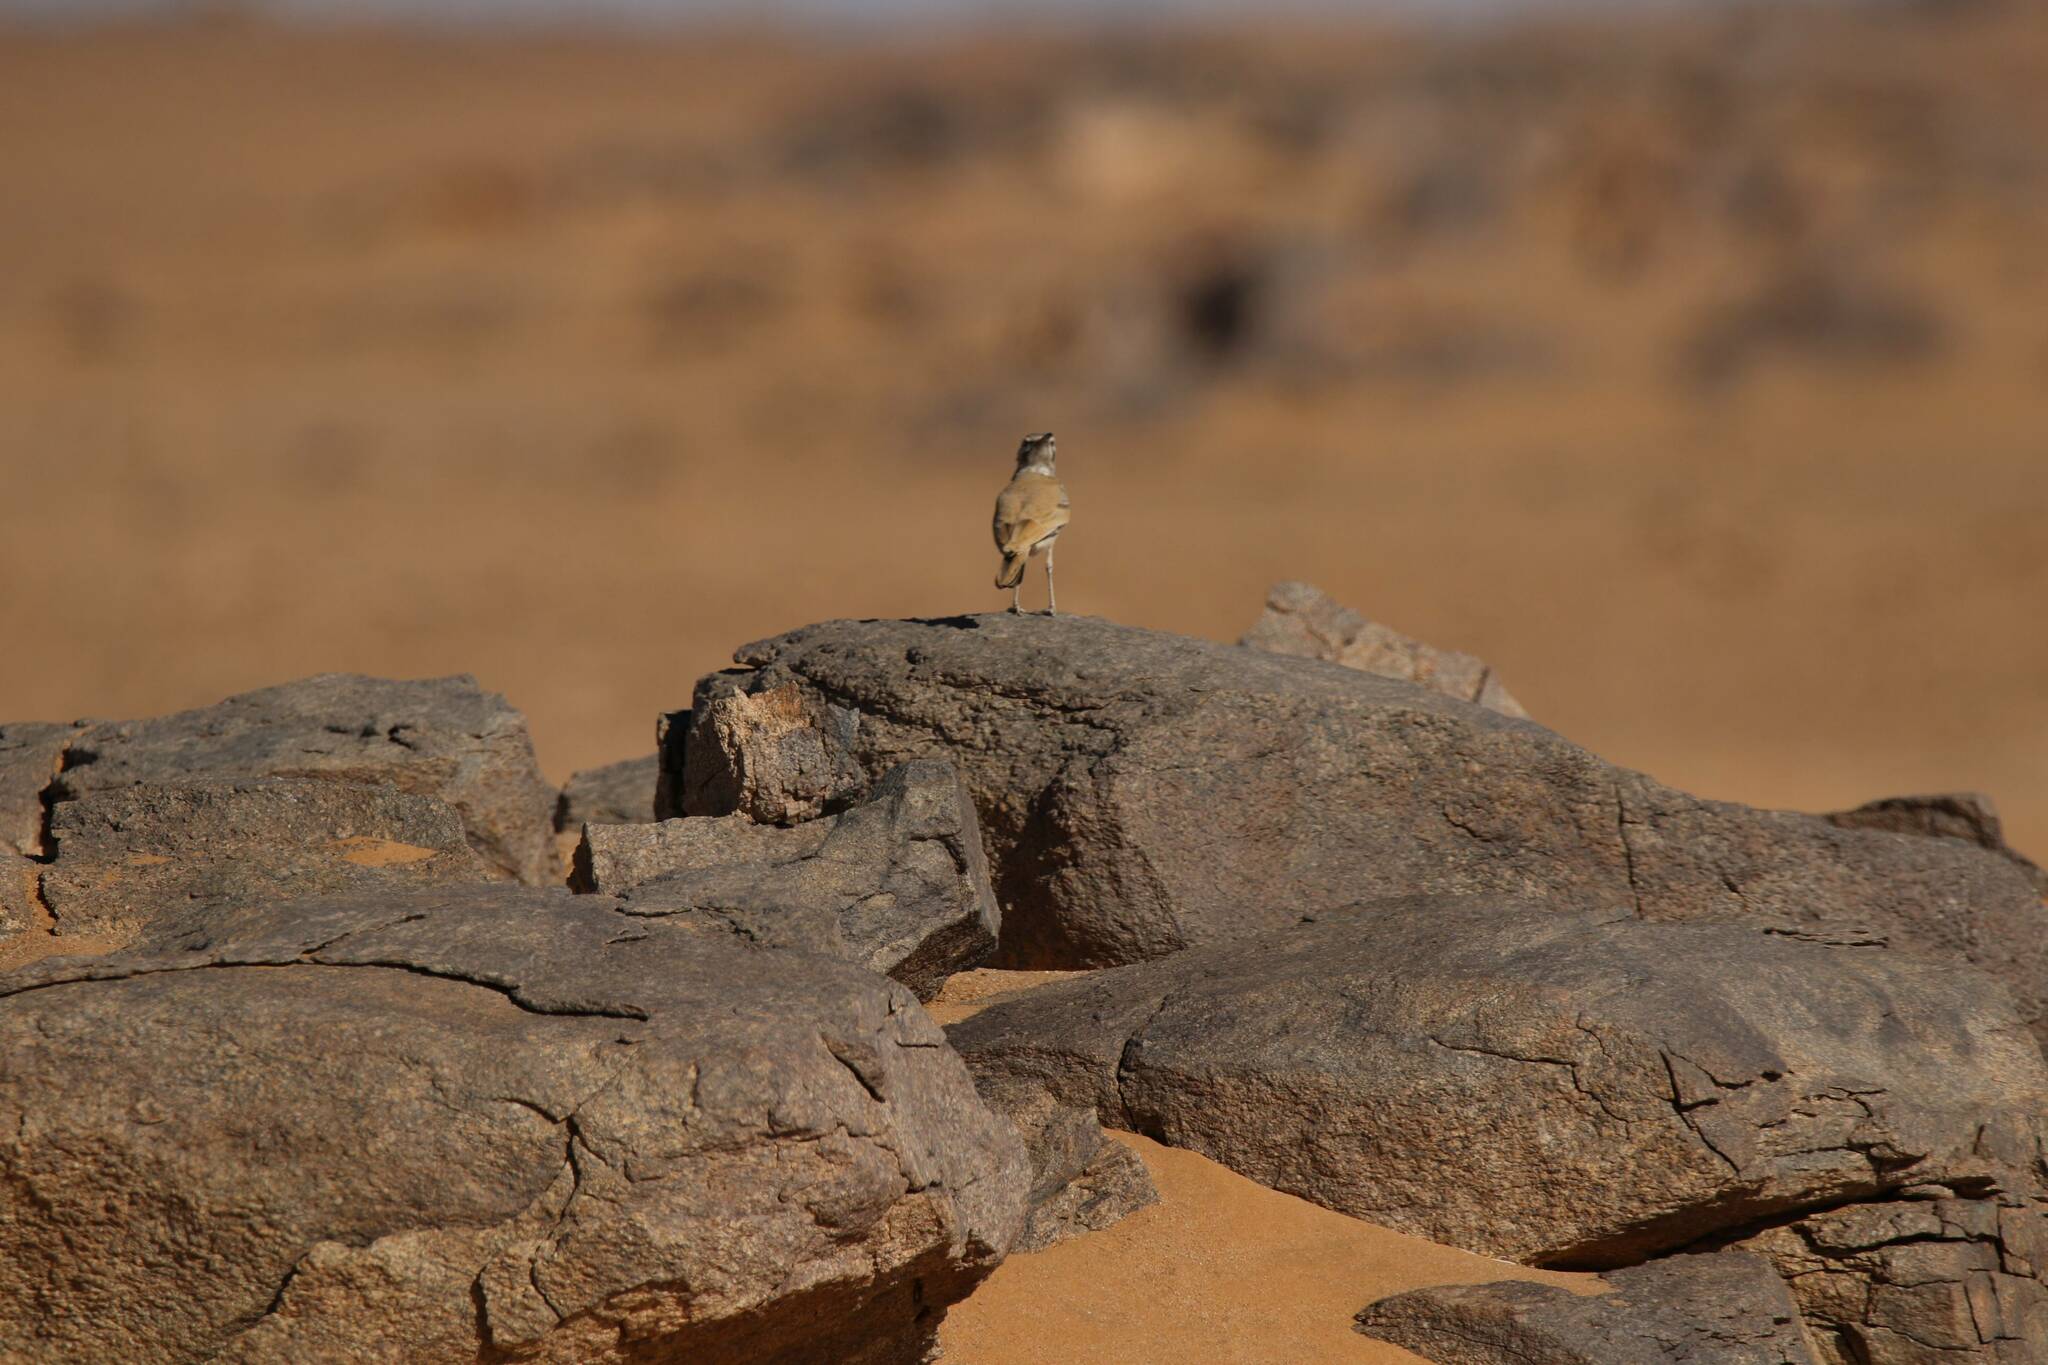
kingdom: Animalia
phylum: Chordata
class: Aves
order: Passeriformes
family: Alaudidae
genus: Alaemon
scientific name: Alaemon alaudipes
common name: Greater hoopoe-lark
